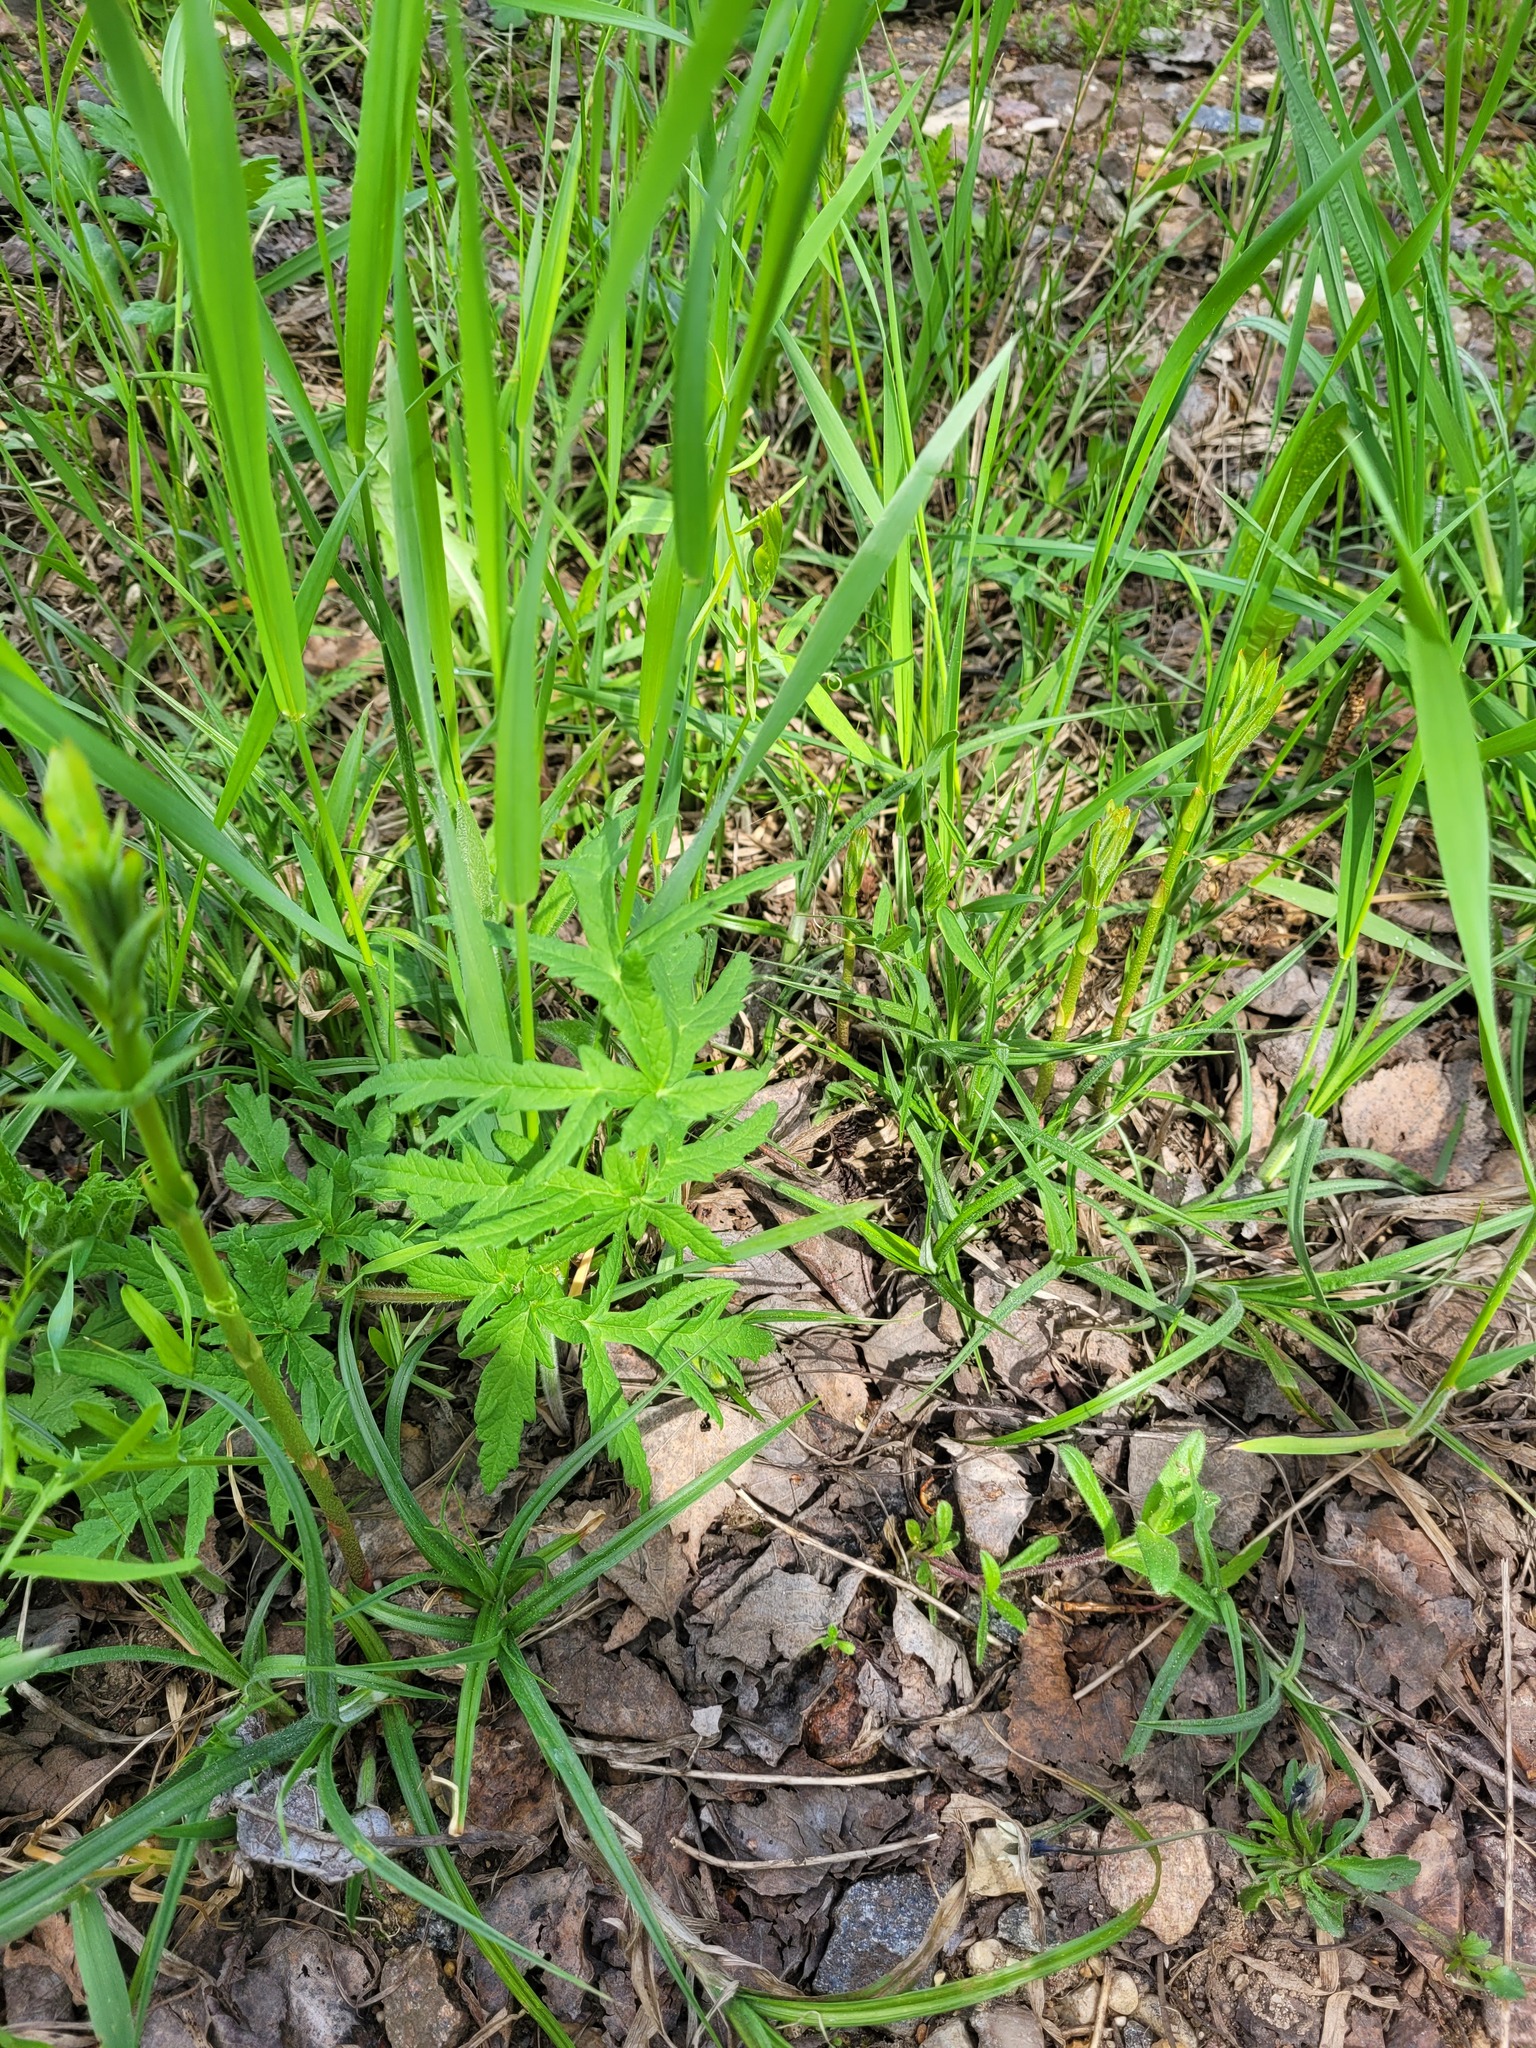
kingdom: Plantae
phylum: Tracheophyta
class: Magnoliopsida
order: Apiales
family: Apiaceae
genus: Heracleum
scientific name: Heracleum sphondylium
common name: Hogweed
